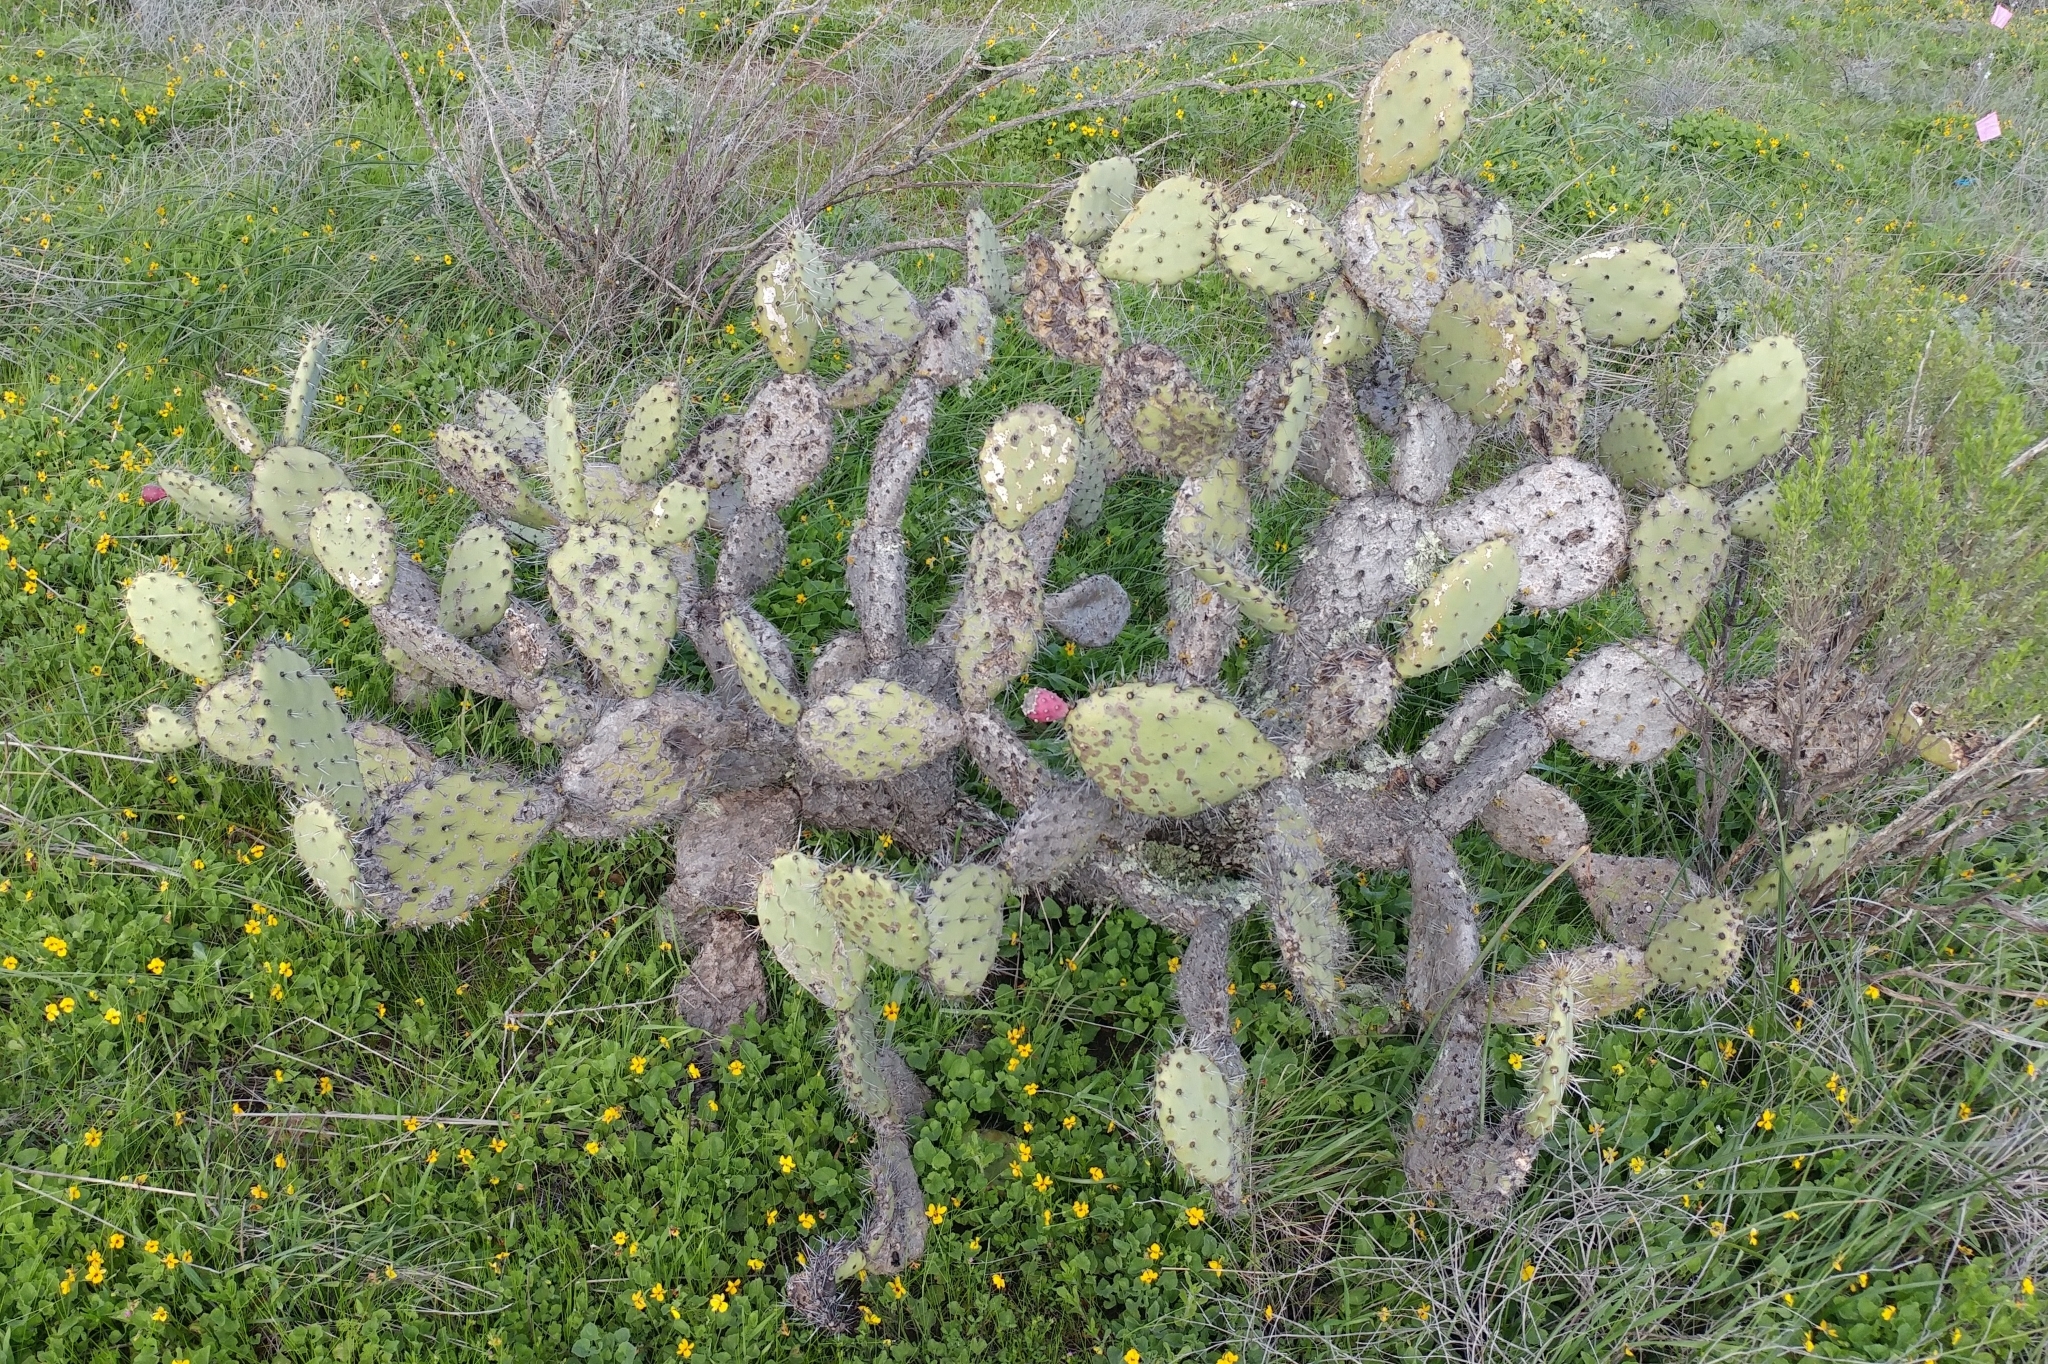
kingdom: Plantae
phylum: Tracheophyta
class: Magnoliopsida
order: Caryophyllales
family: Cactaceae
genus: Opuntia
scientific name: Opuntia littoralis
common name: Coastal prickly-pear
